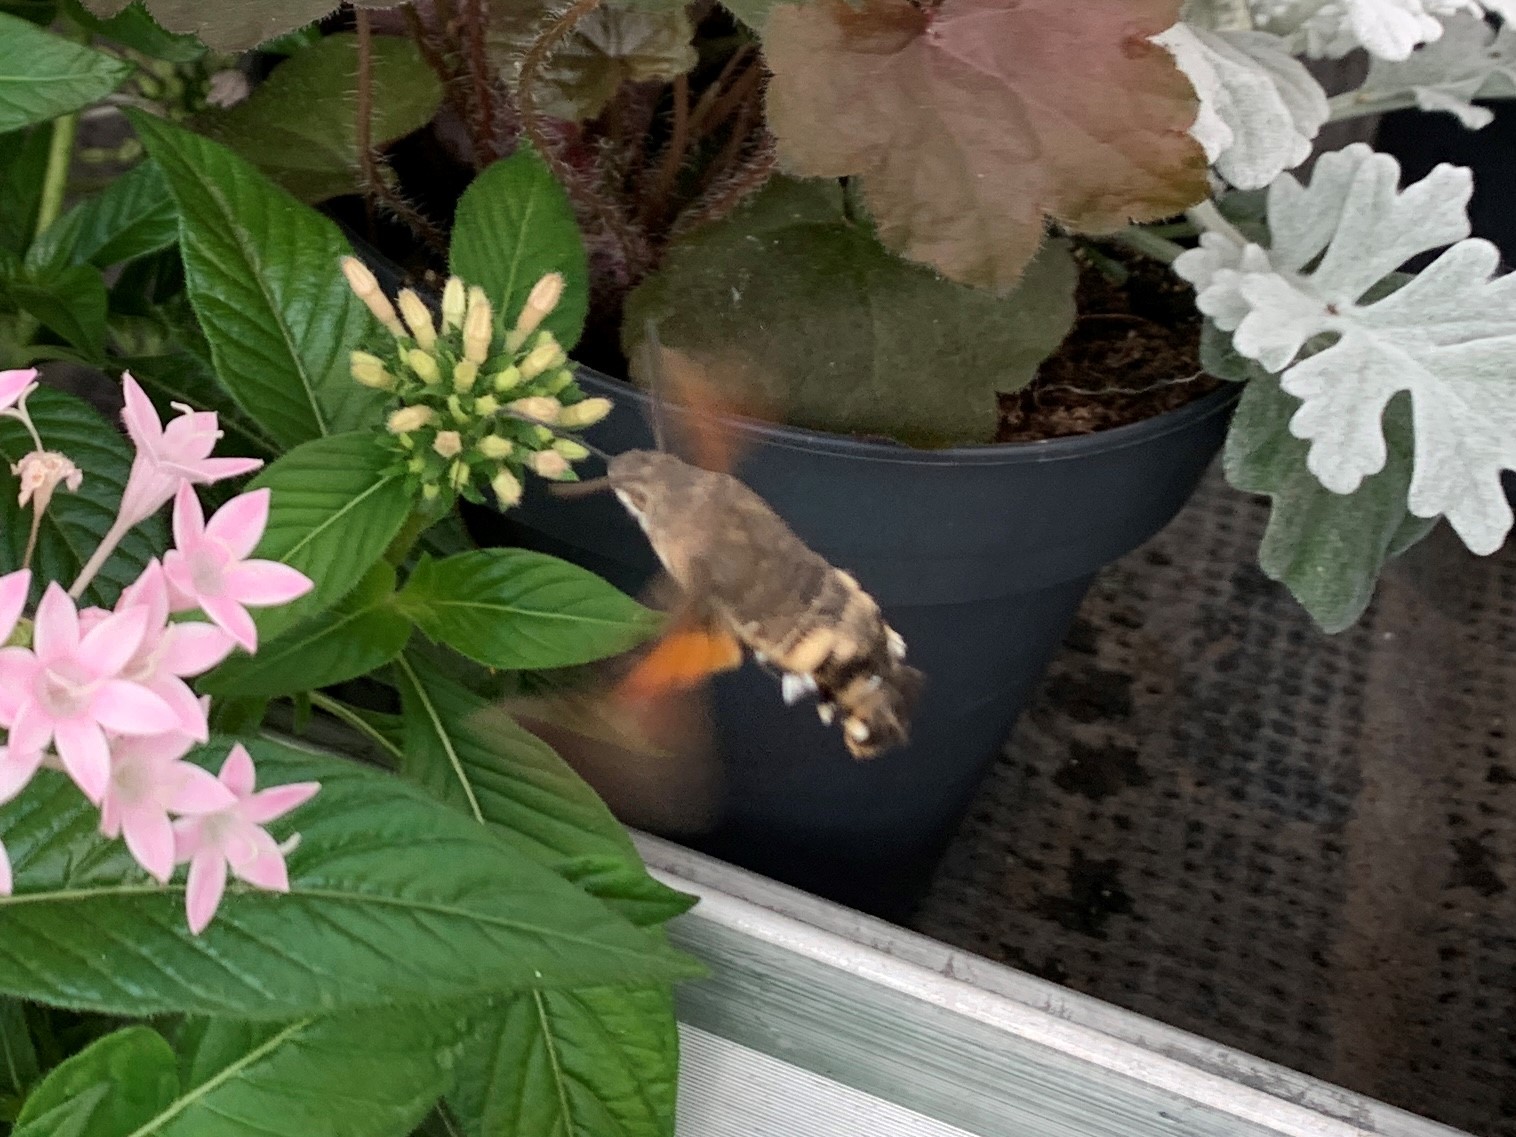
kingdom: Animalia
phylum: Arthropoda
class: Insecta
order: Lepidoptera
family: Sphingidae
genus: Macroglossum
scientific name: Macroglossum stellatarum
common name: Humming-bird hawk-moth
